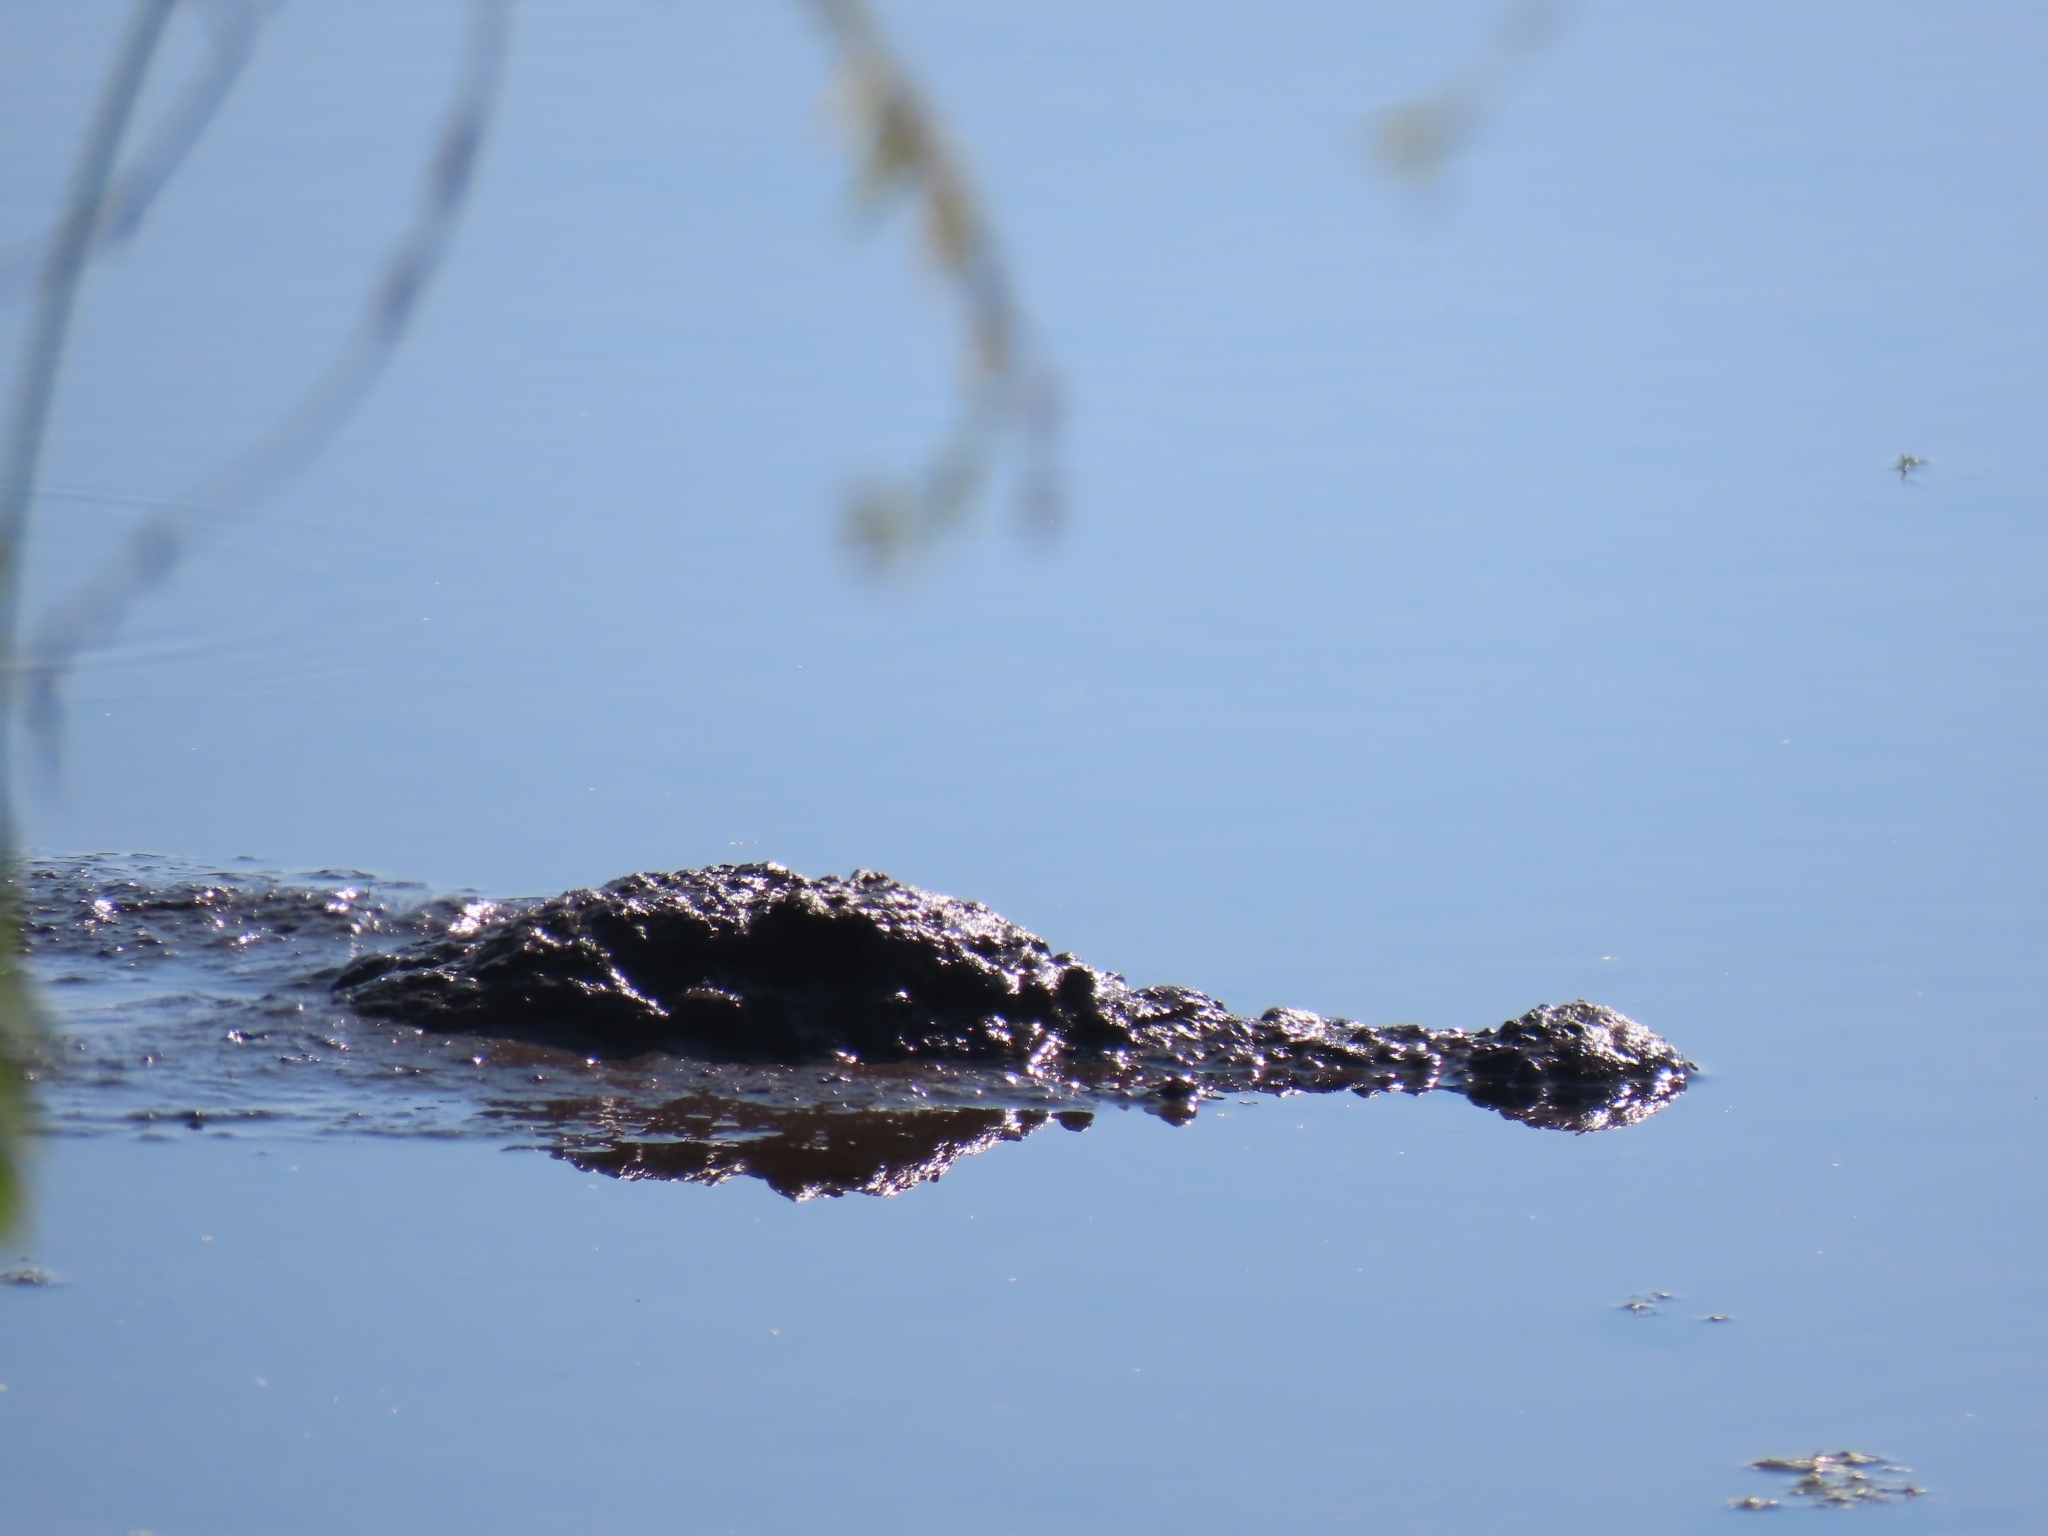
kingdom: Animalia
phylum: Chordata
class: Crocodylia
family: Alligatoridae
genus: Alligator
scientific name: Alligator mississippiensis
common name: American alligator
